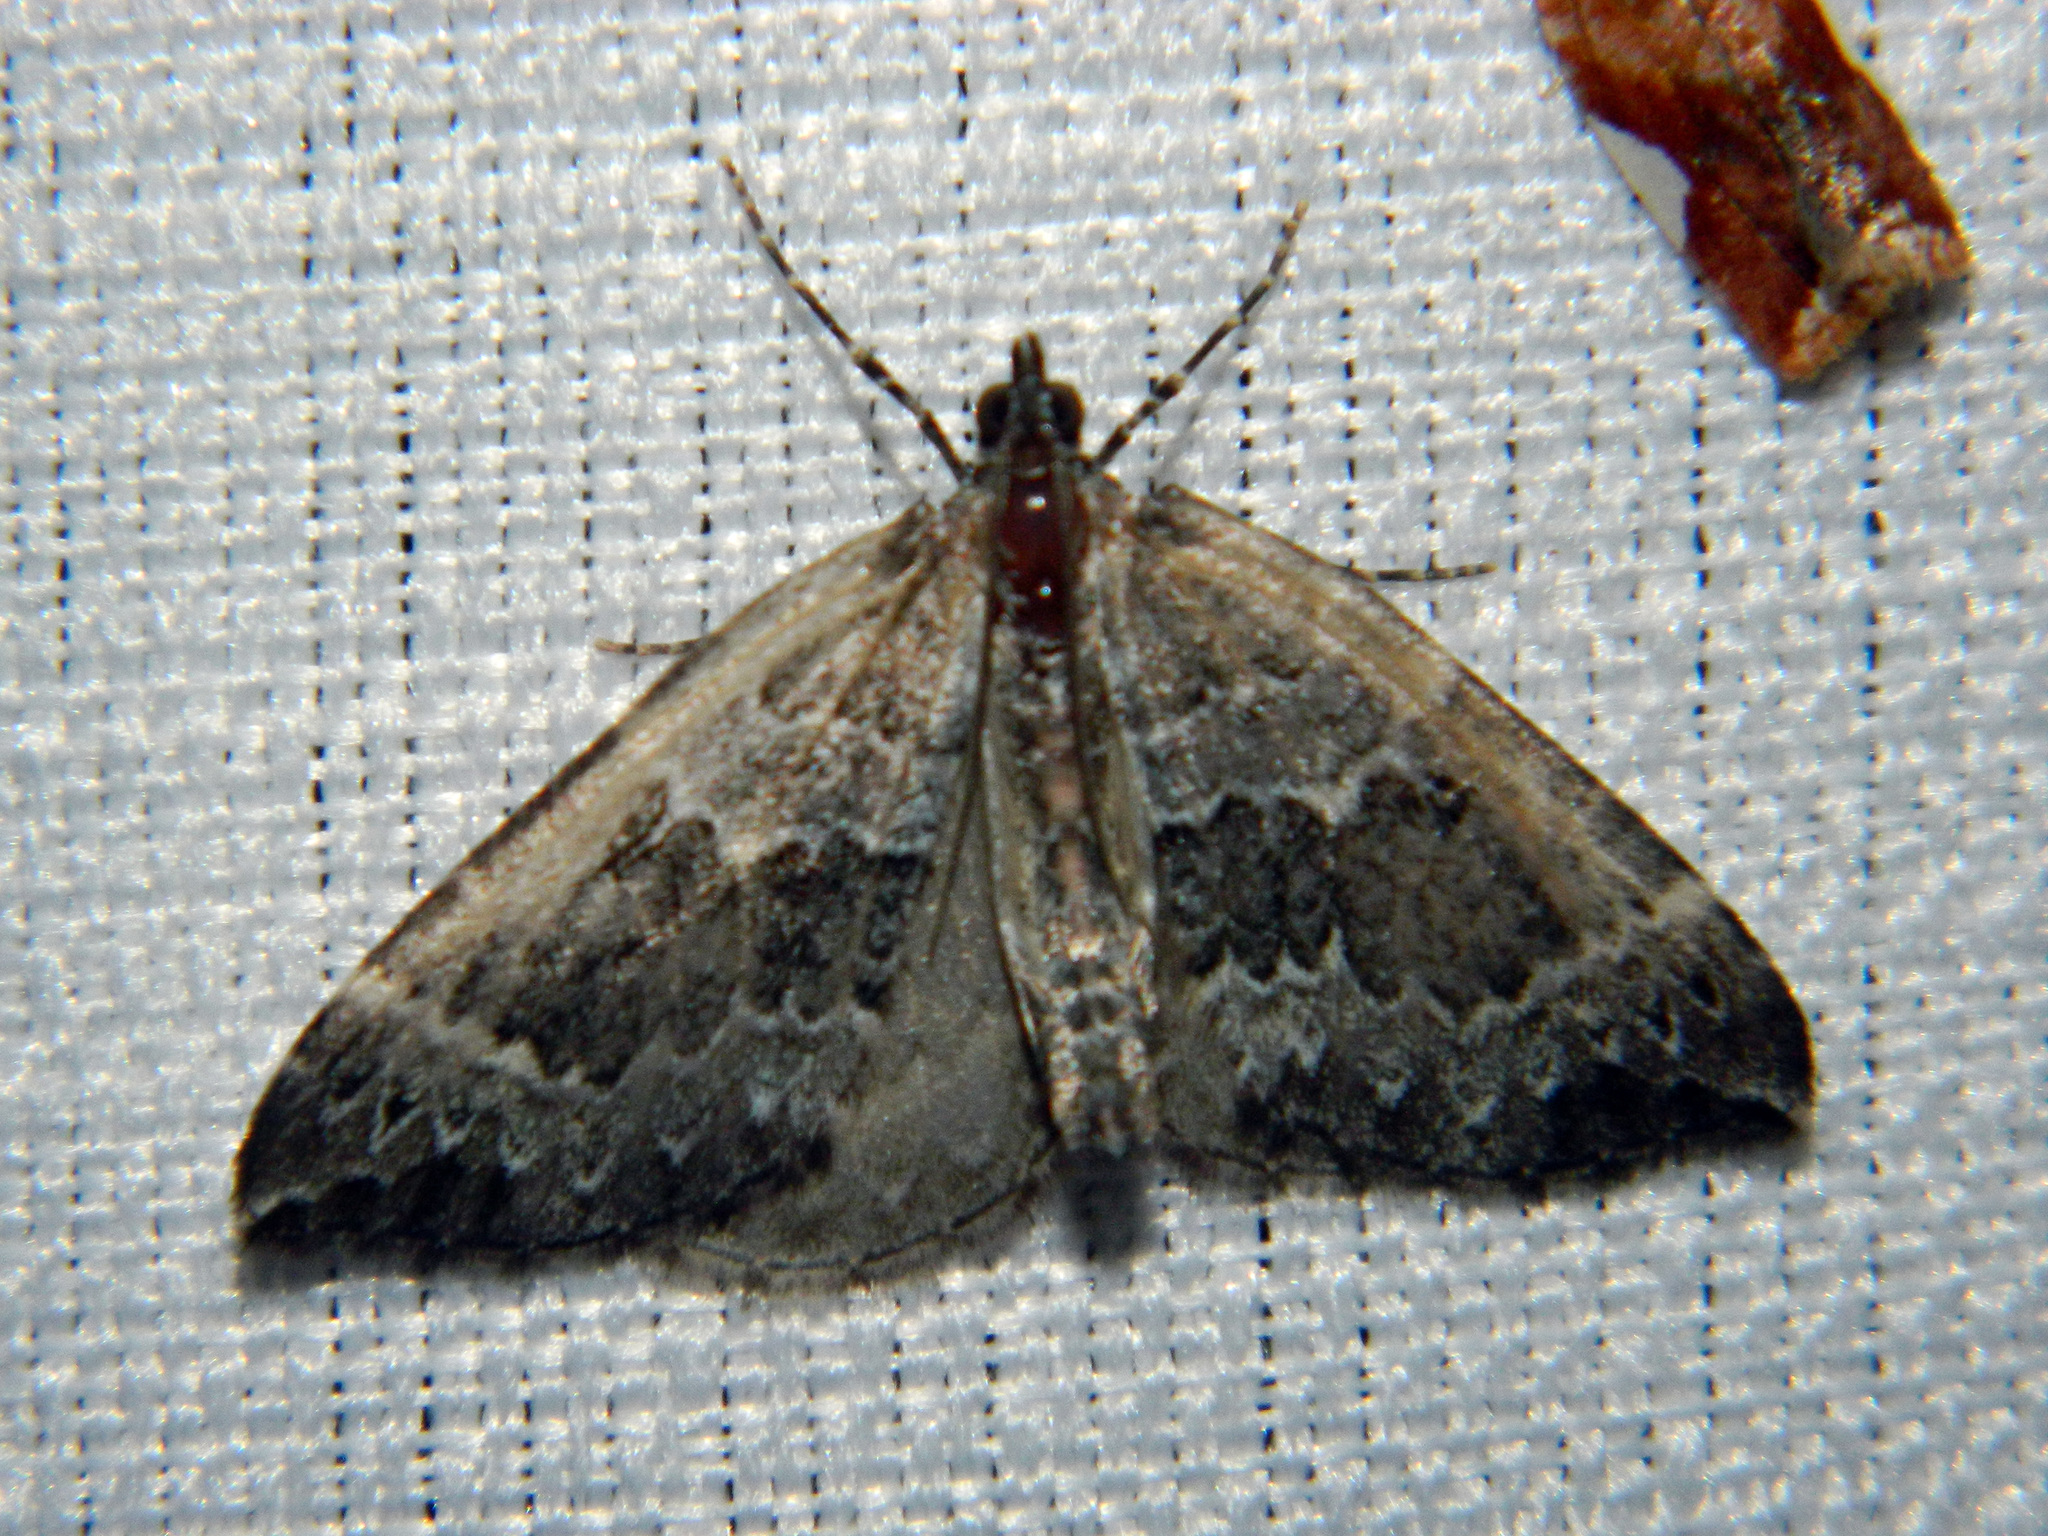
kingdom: Animalia
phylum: Arthropoda
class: Insecta
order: Lepidoptera
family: Geometridae
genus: Eulithis
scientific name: Eulithis explanata
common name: White eulithis
